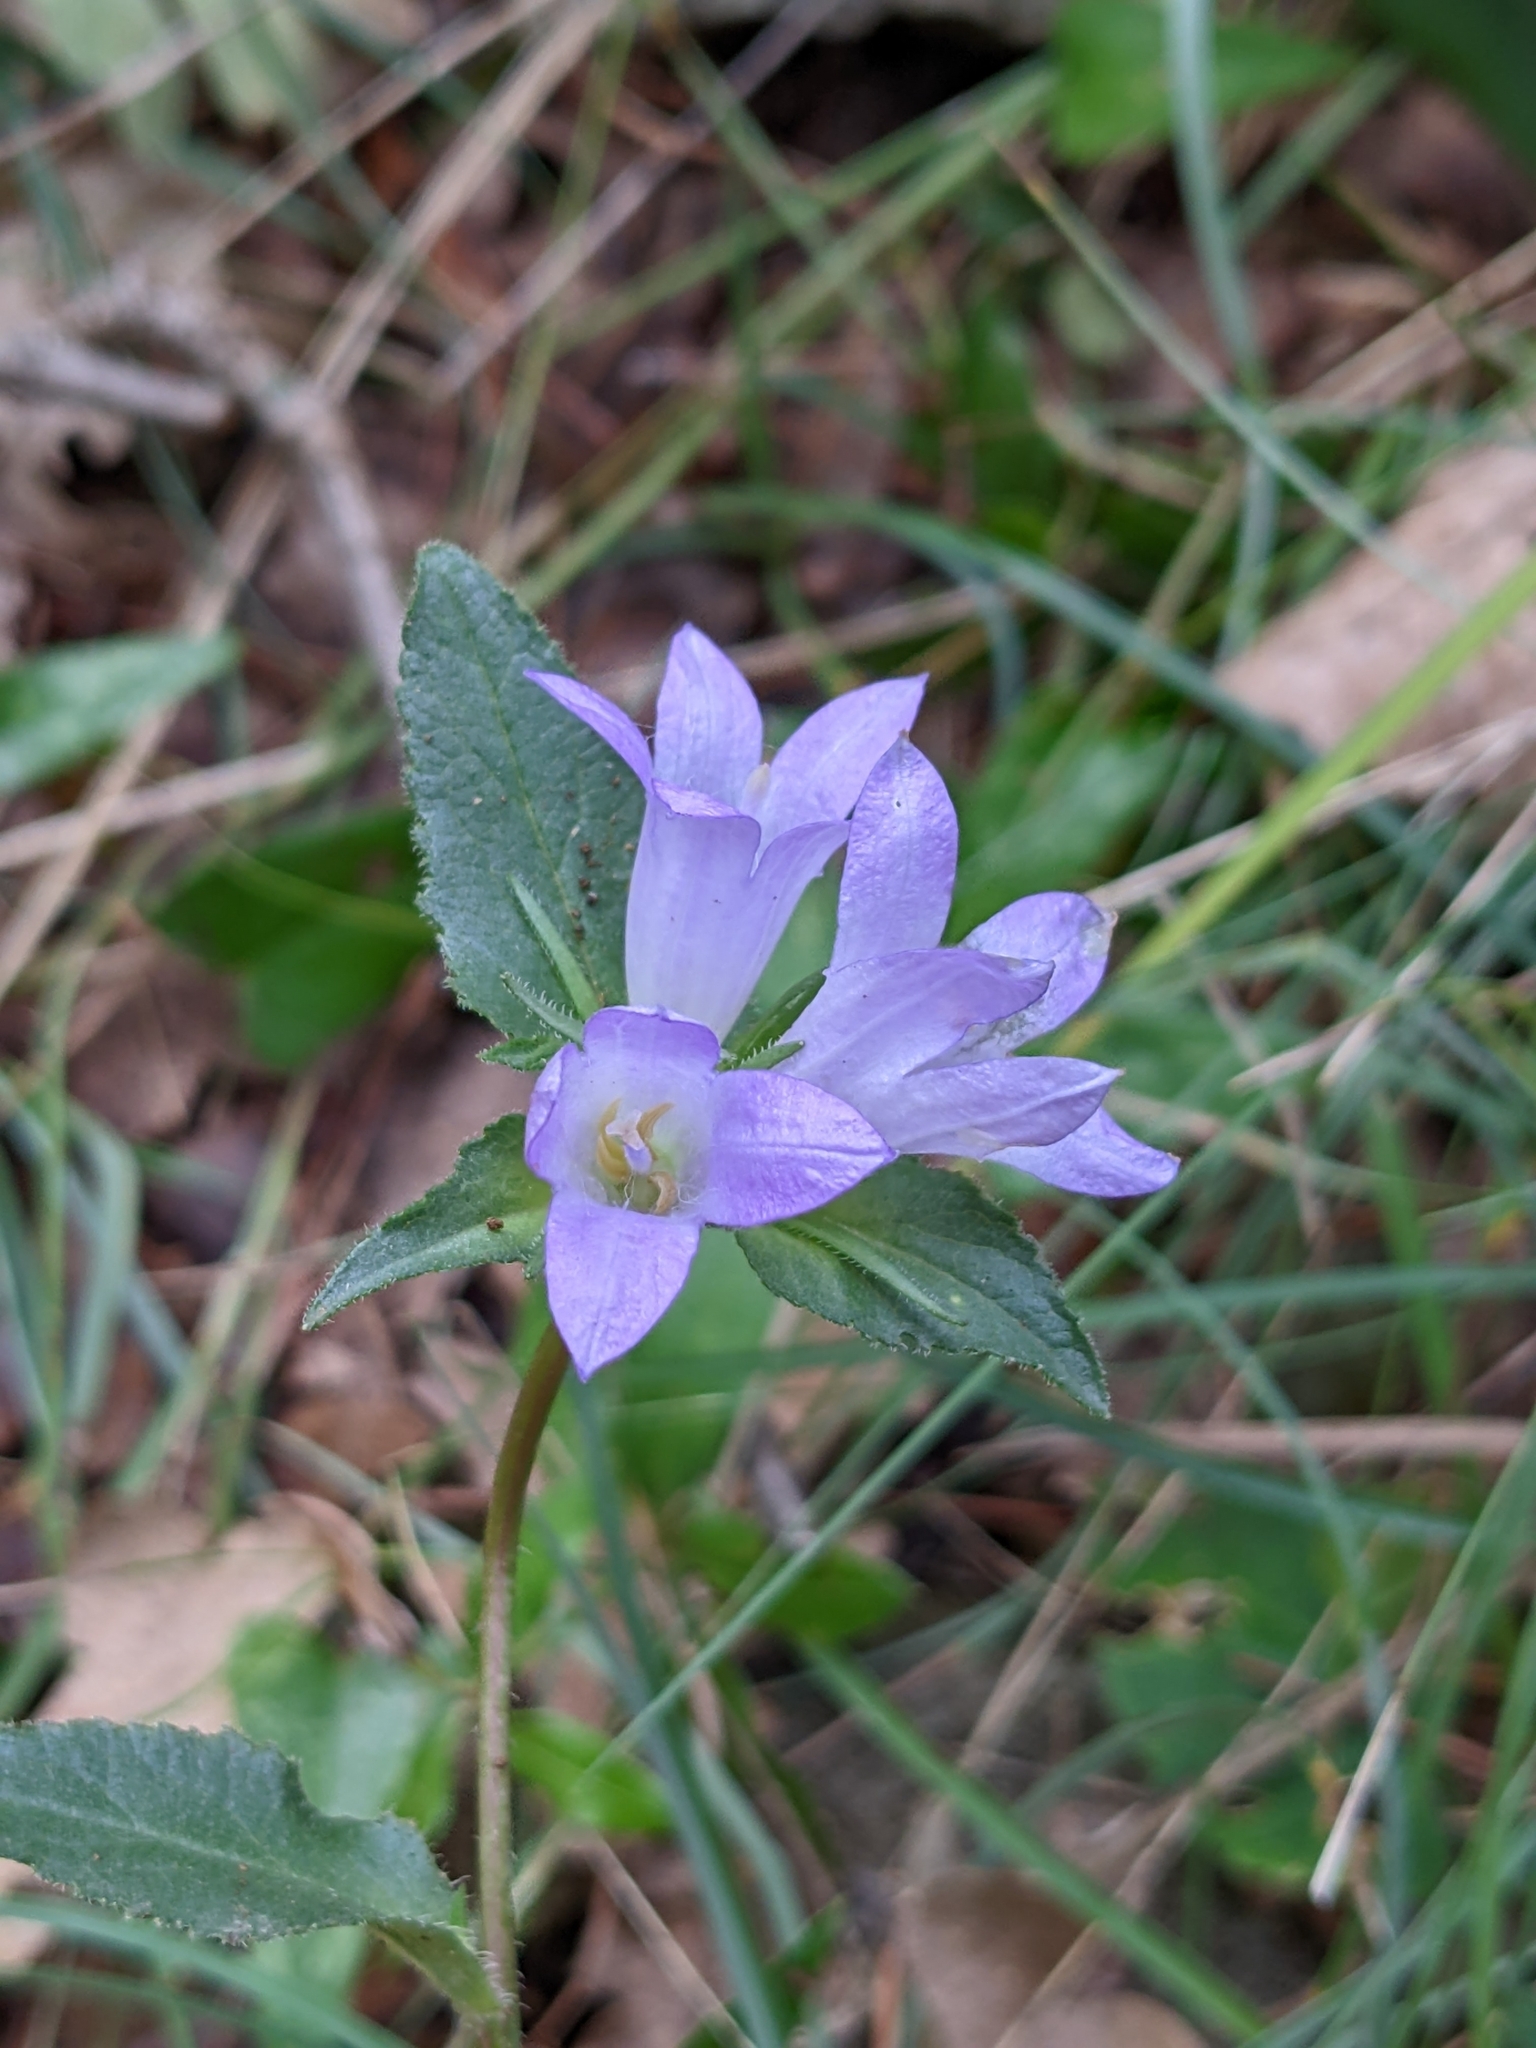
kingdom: Plantae
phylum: Tracheophyta
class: Magnoliopsida
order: Asterales
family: Campanulaceae
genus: Campanula
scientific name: Campanula glomerata
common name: Clustered bellflower
